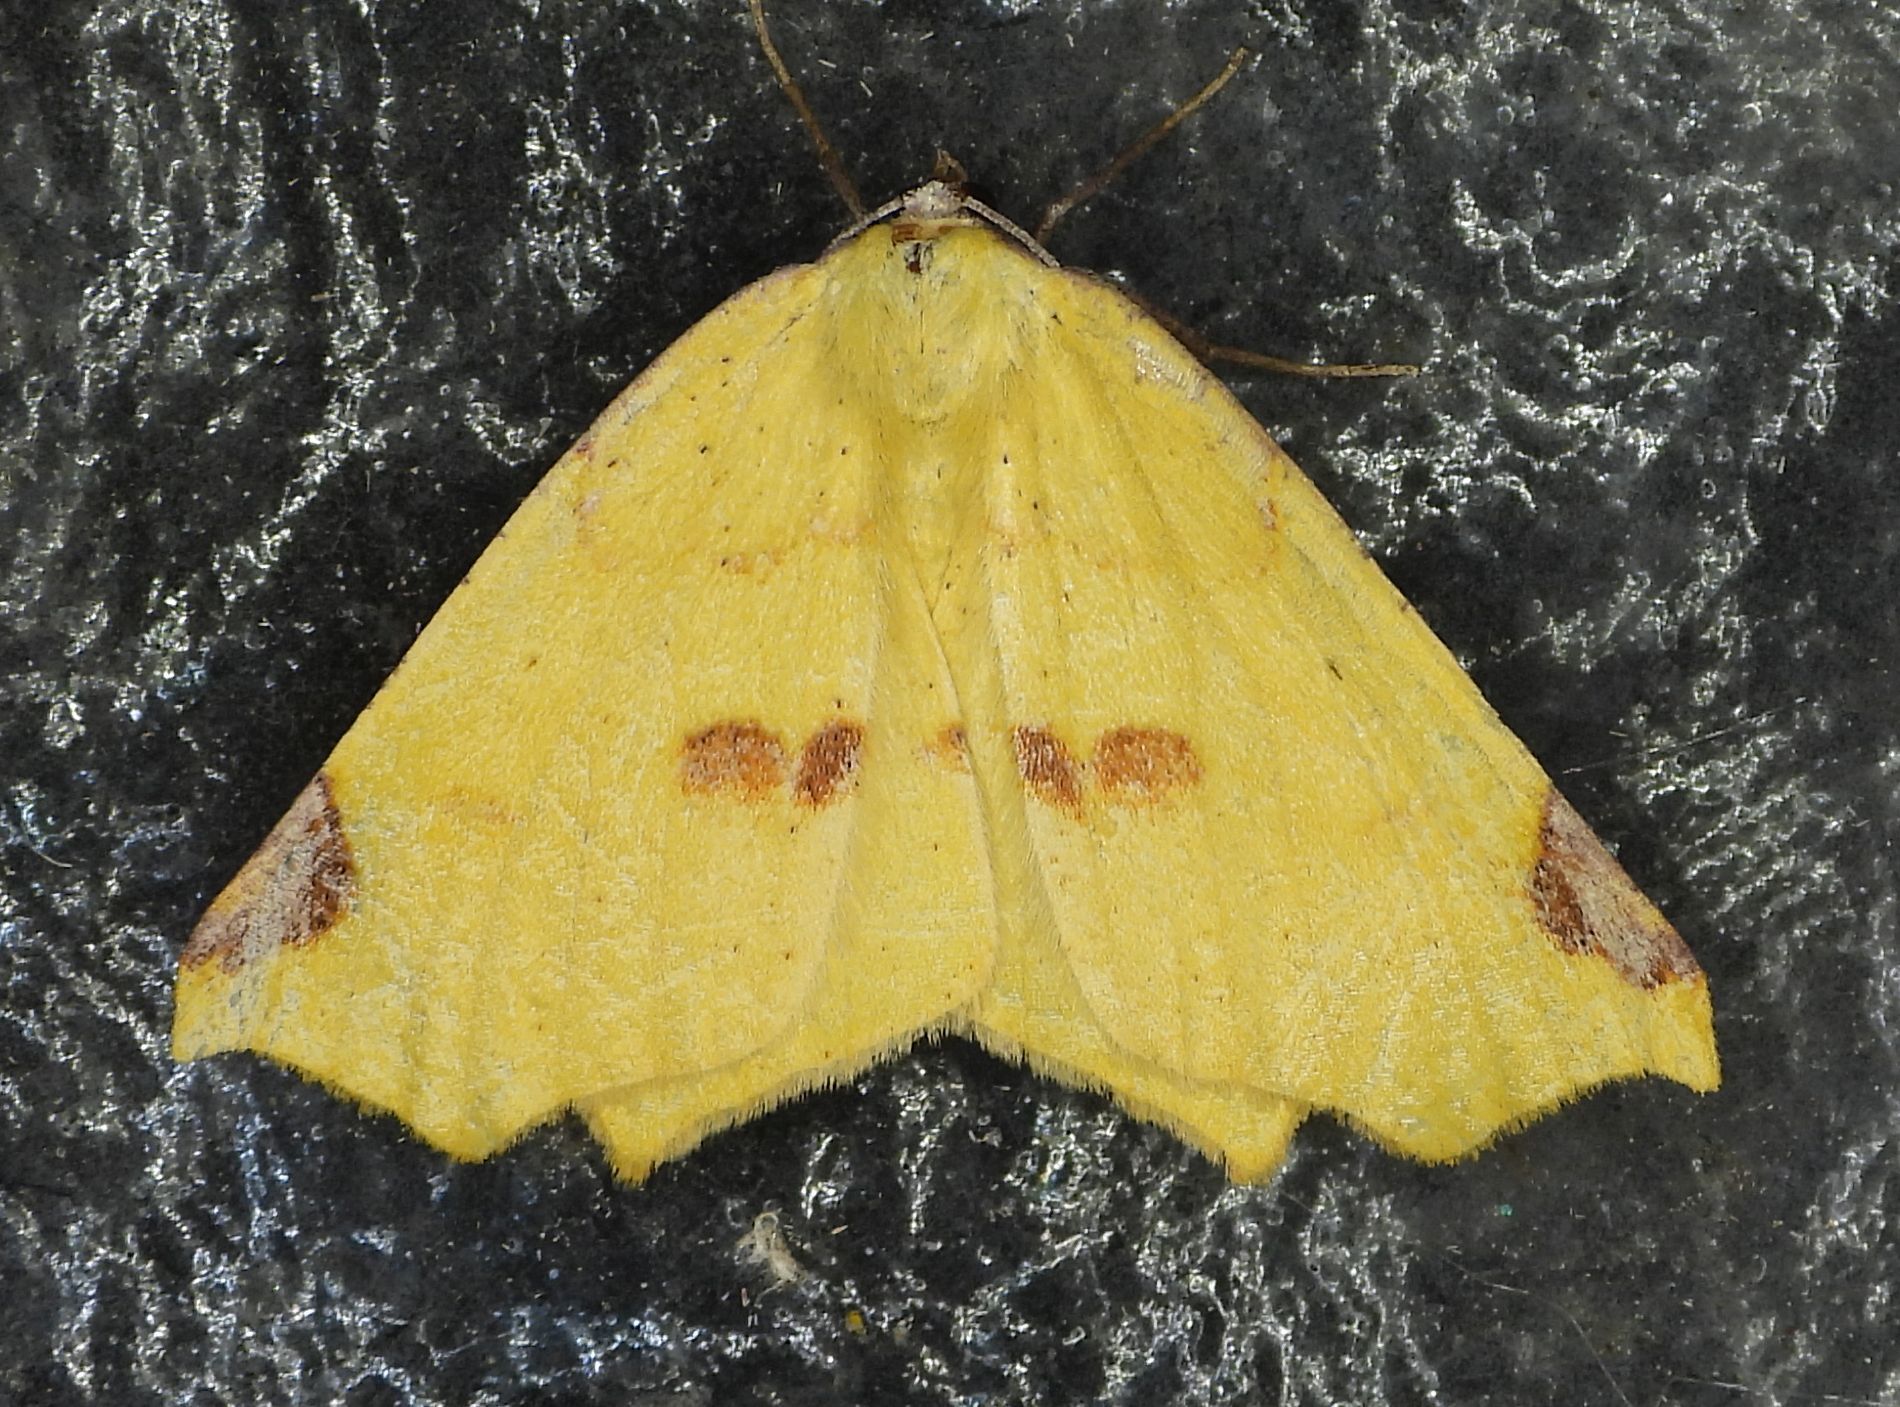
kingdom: Animalia
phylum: Arthropoda
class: Insecta
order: Lepidoptera
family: Geometridae
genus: Antepione
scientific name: Antepione thisoaria
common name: Variable antipione
